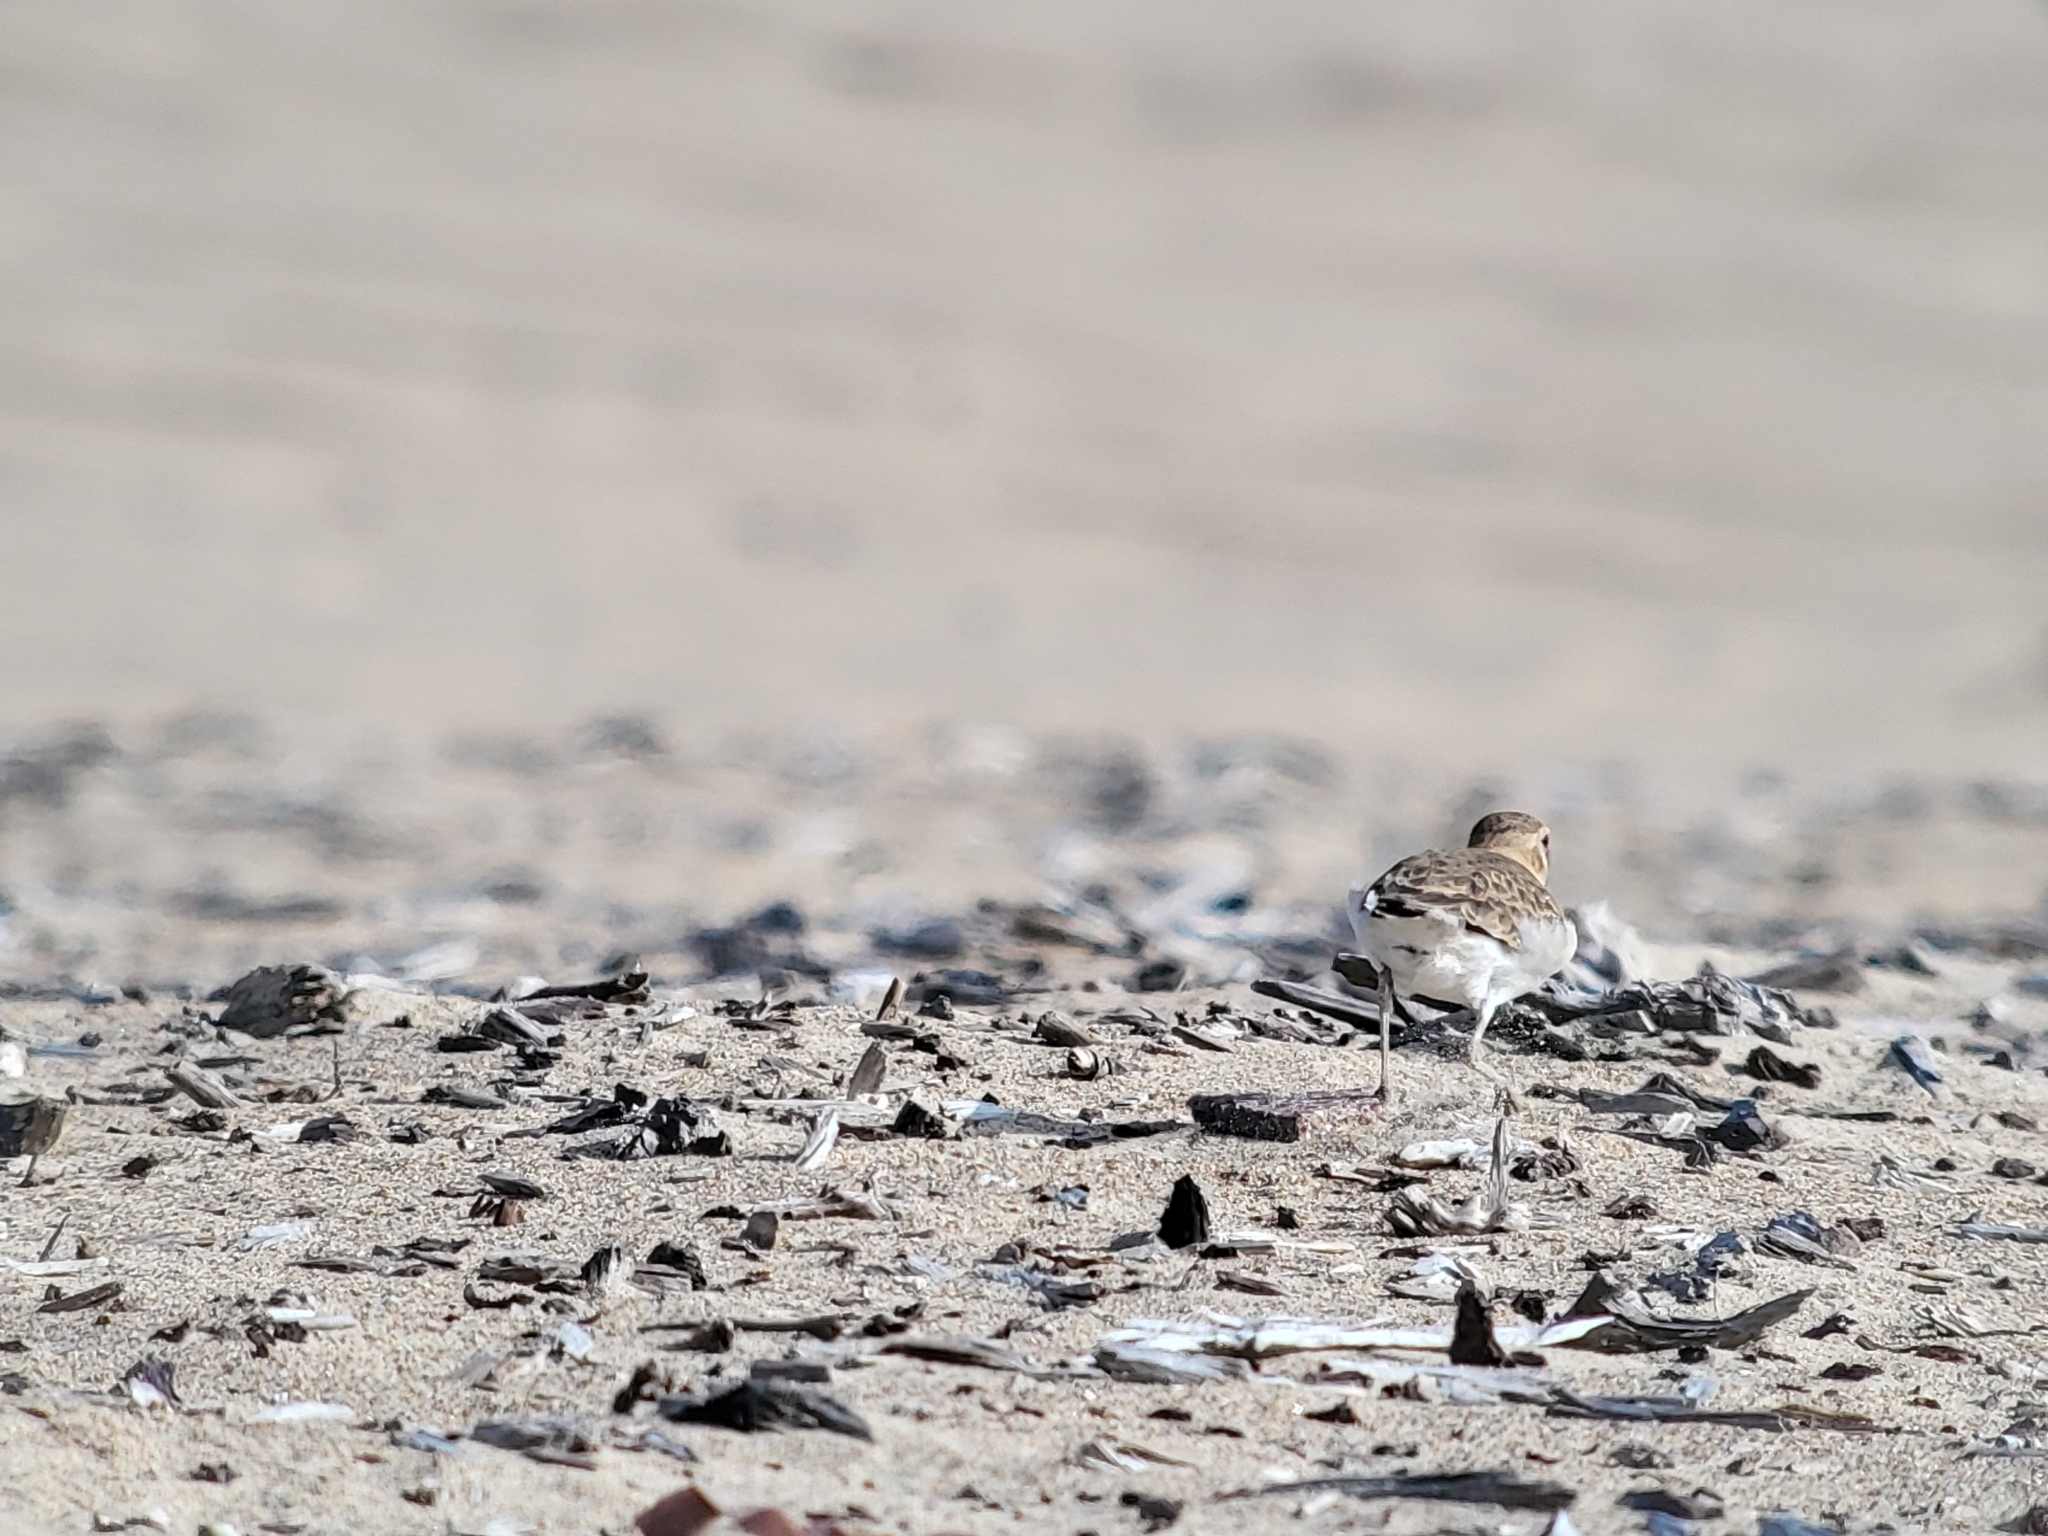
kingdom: Animalia
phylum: Chordata
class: Aves
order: Charadriiformes
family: Charadriidae
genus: Anarhynchus
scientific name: Anarhynchus
